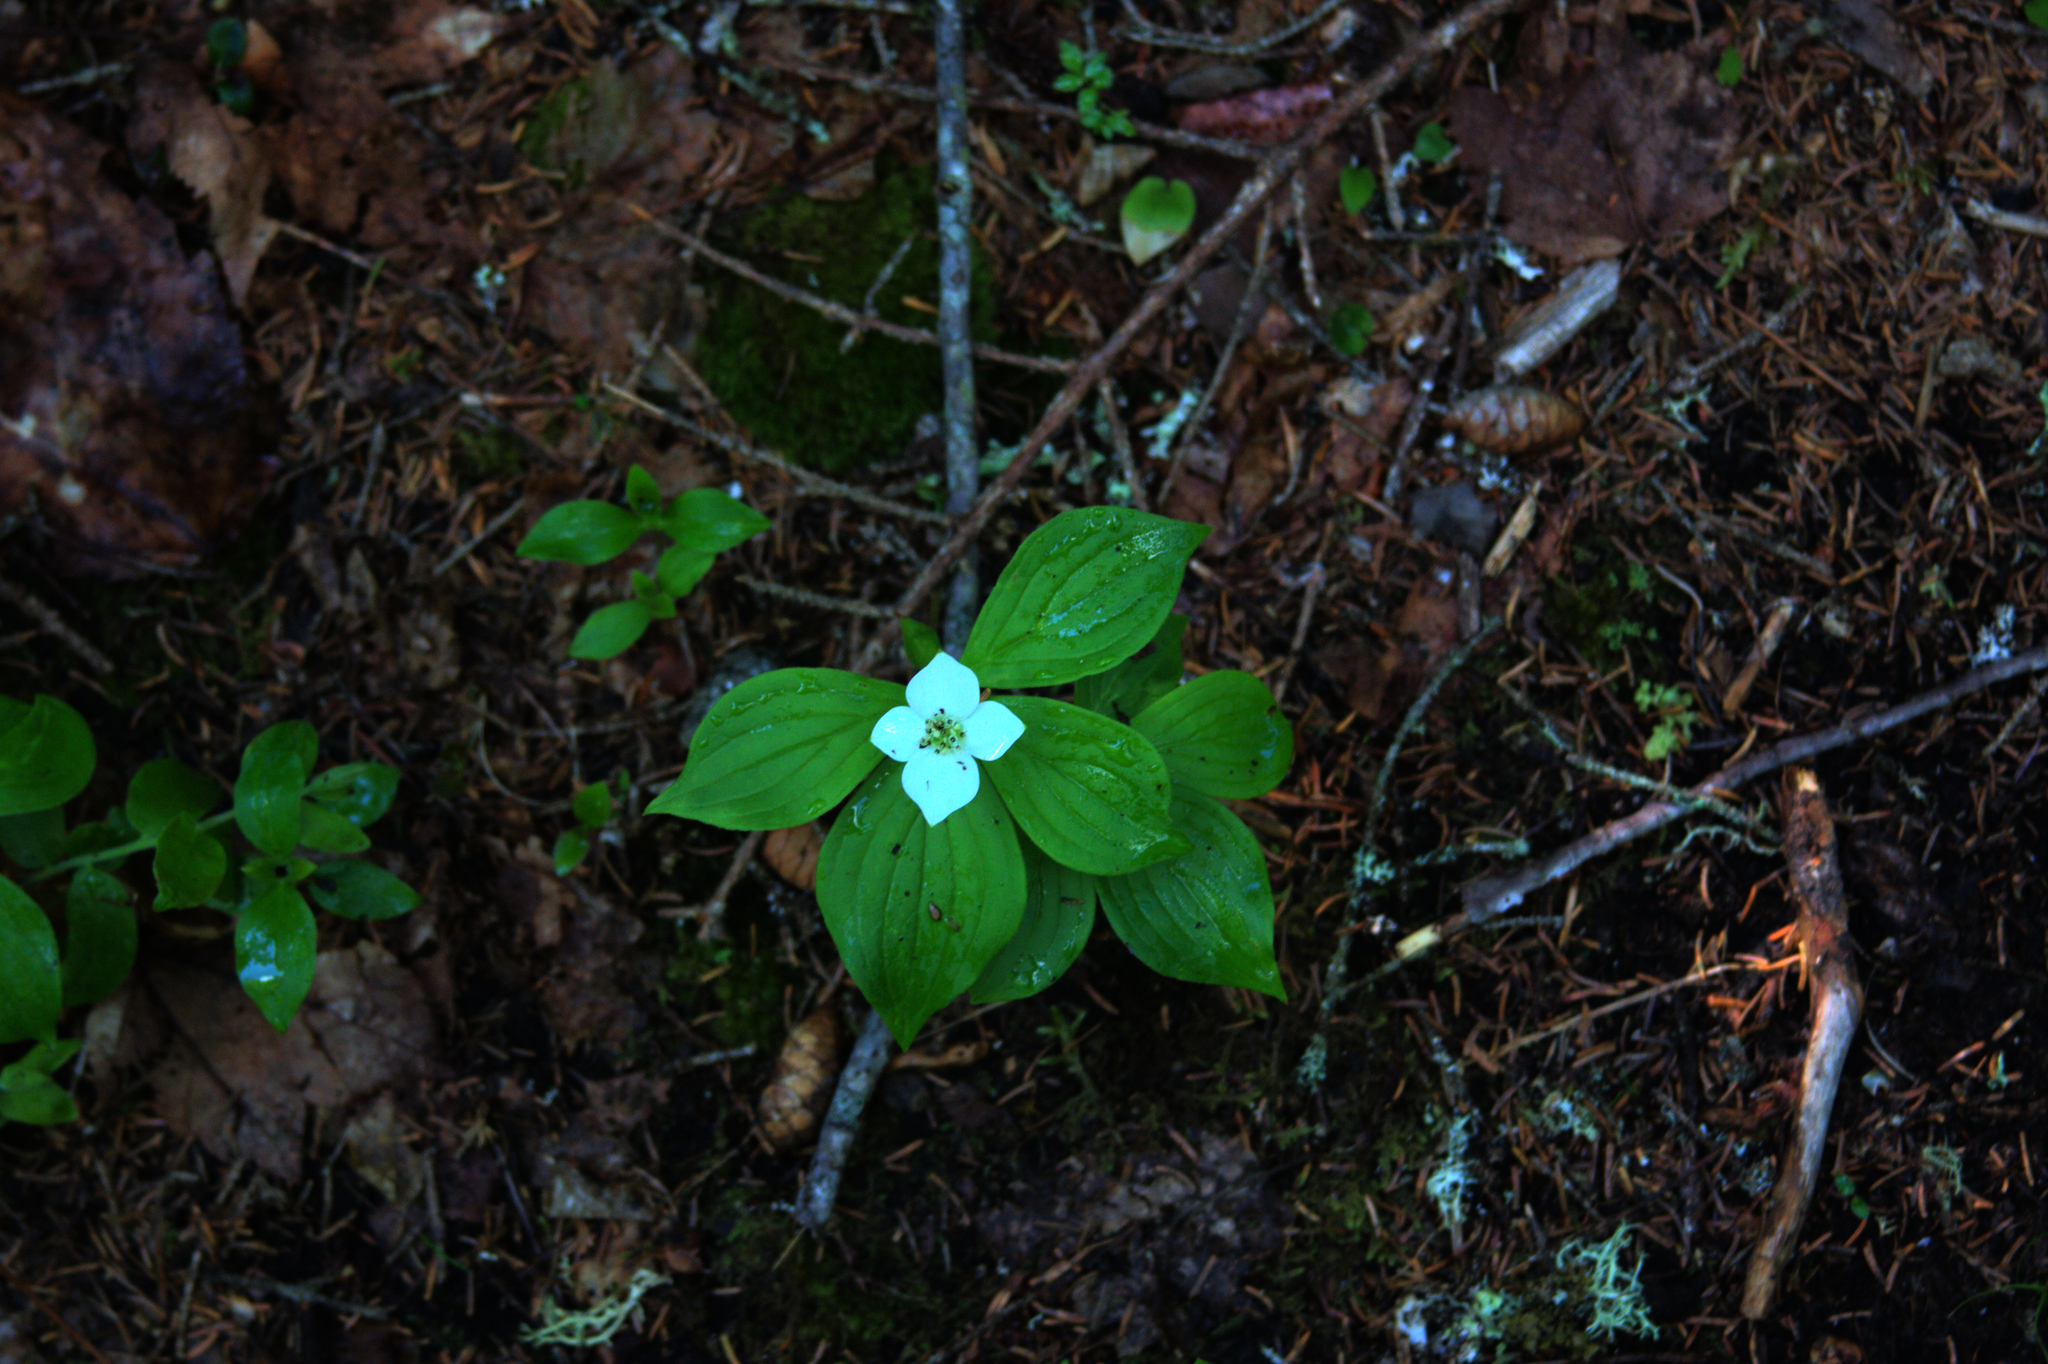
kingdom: Plantae
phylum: Tracheophyta
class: Magnoliopsida
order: Cornales
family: Cornaceae
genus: Cornus
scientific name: Cornus canadensis
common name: Creeping dogwood
